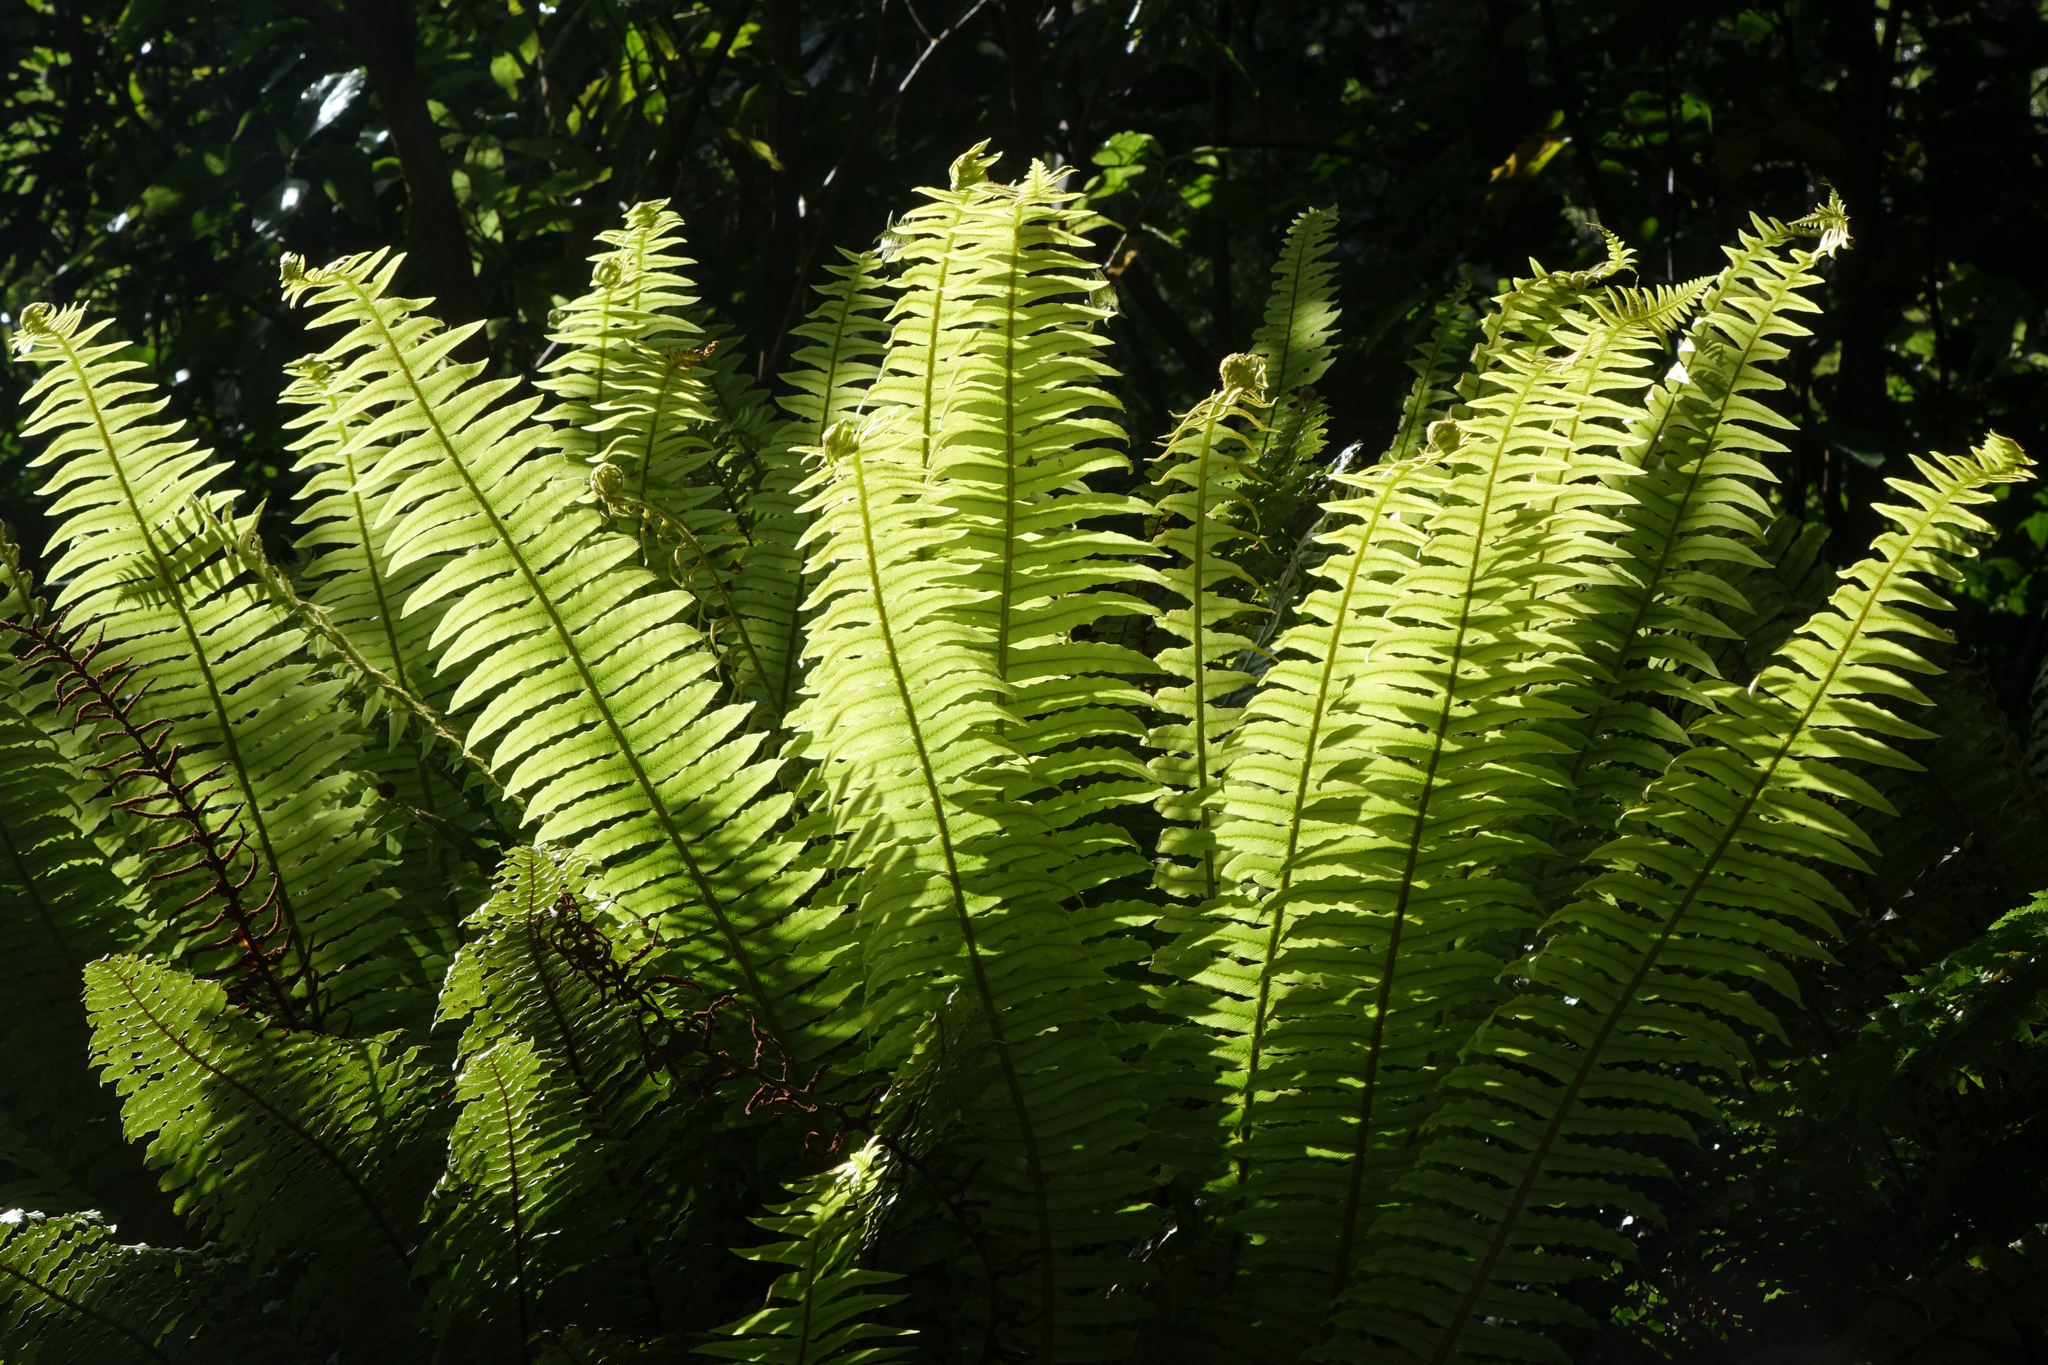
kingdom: Plantae
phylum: Tracheophyta
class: Polypodiopsida
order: Polypodiales
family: Blechnaceae
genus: Lomaria
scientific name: Lomaria discolor
